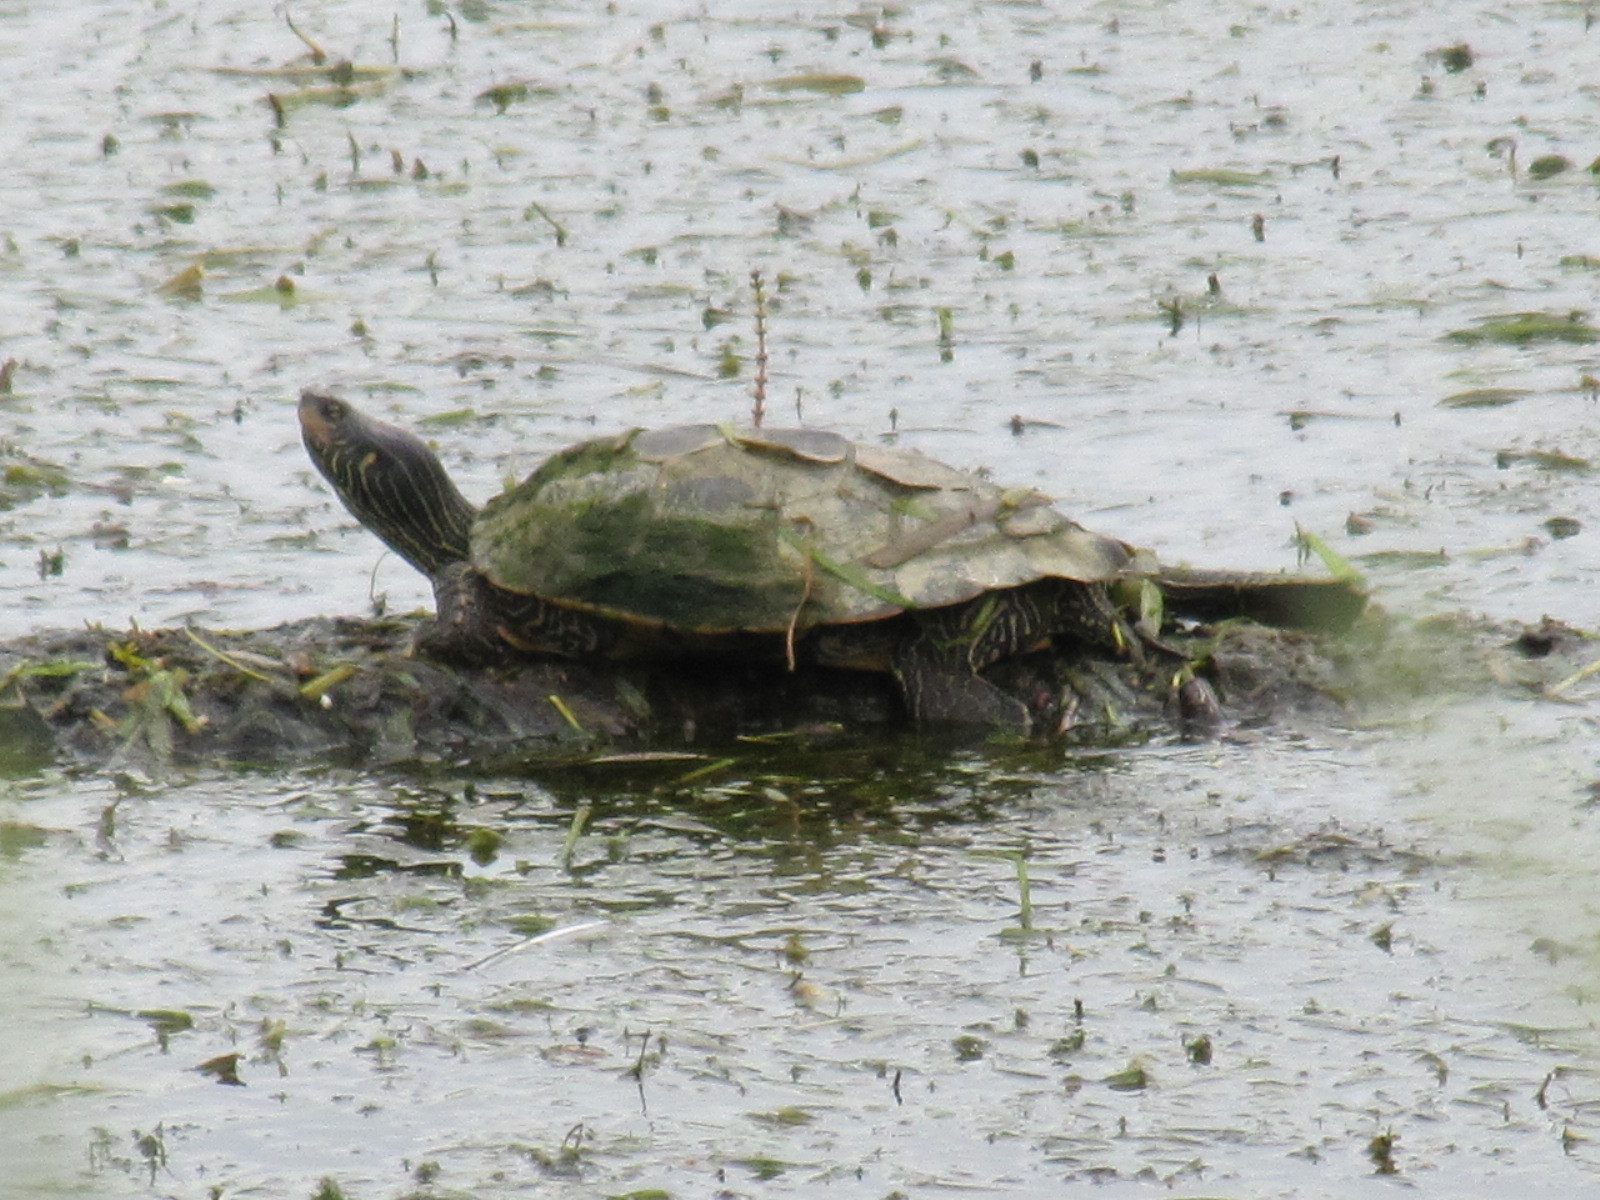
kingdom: Animalia
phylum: Chordata
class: Testudines
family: Emydidae
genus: Graptemys
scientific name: Graptemys geographica
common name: Common map turtle
